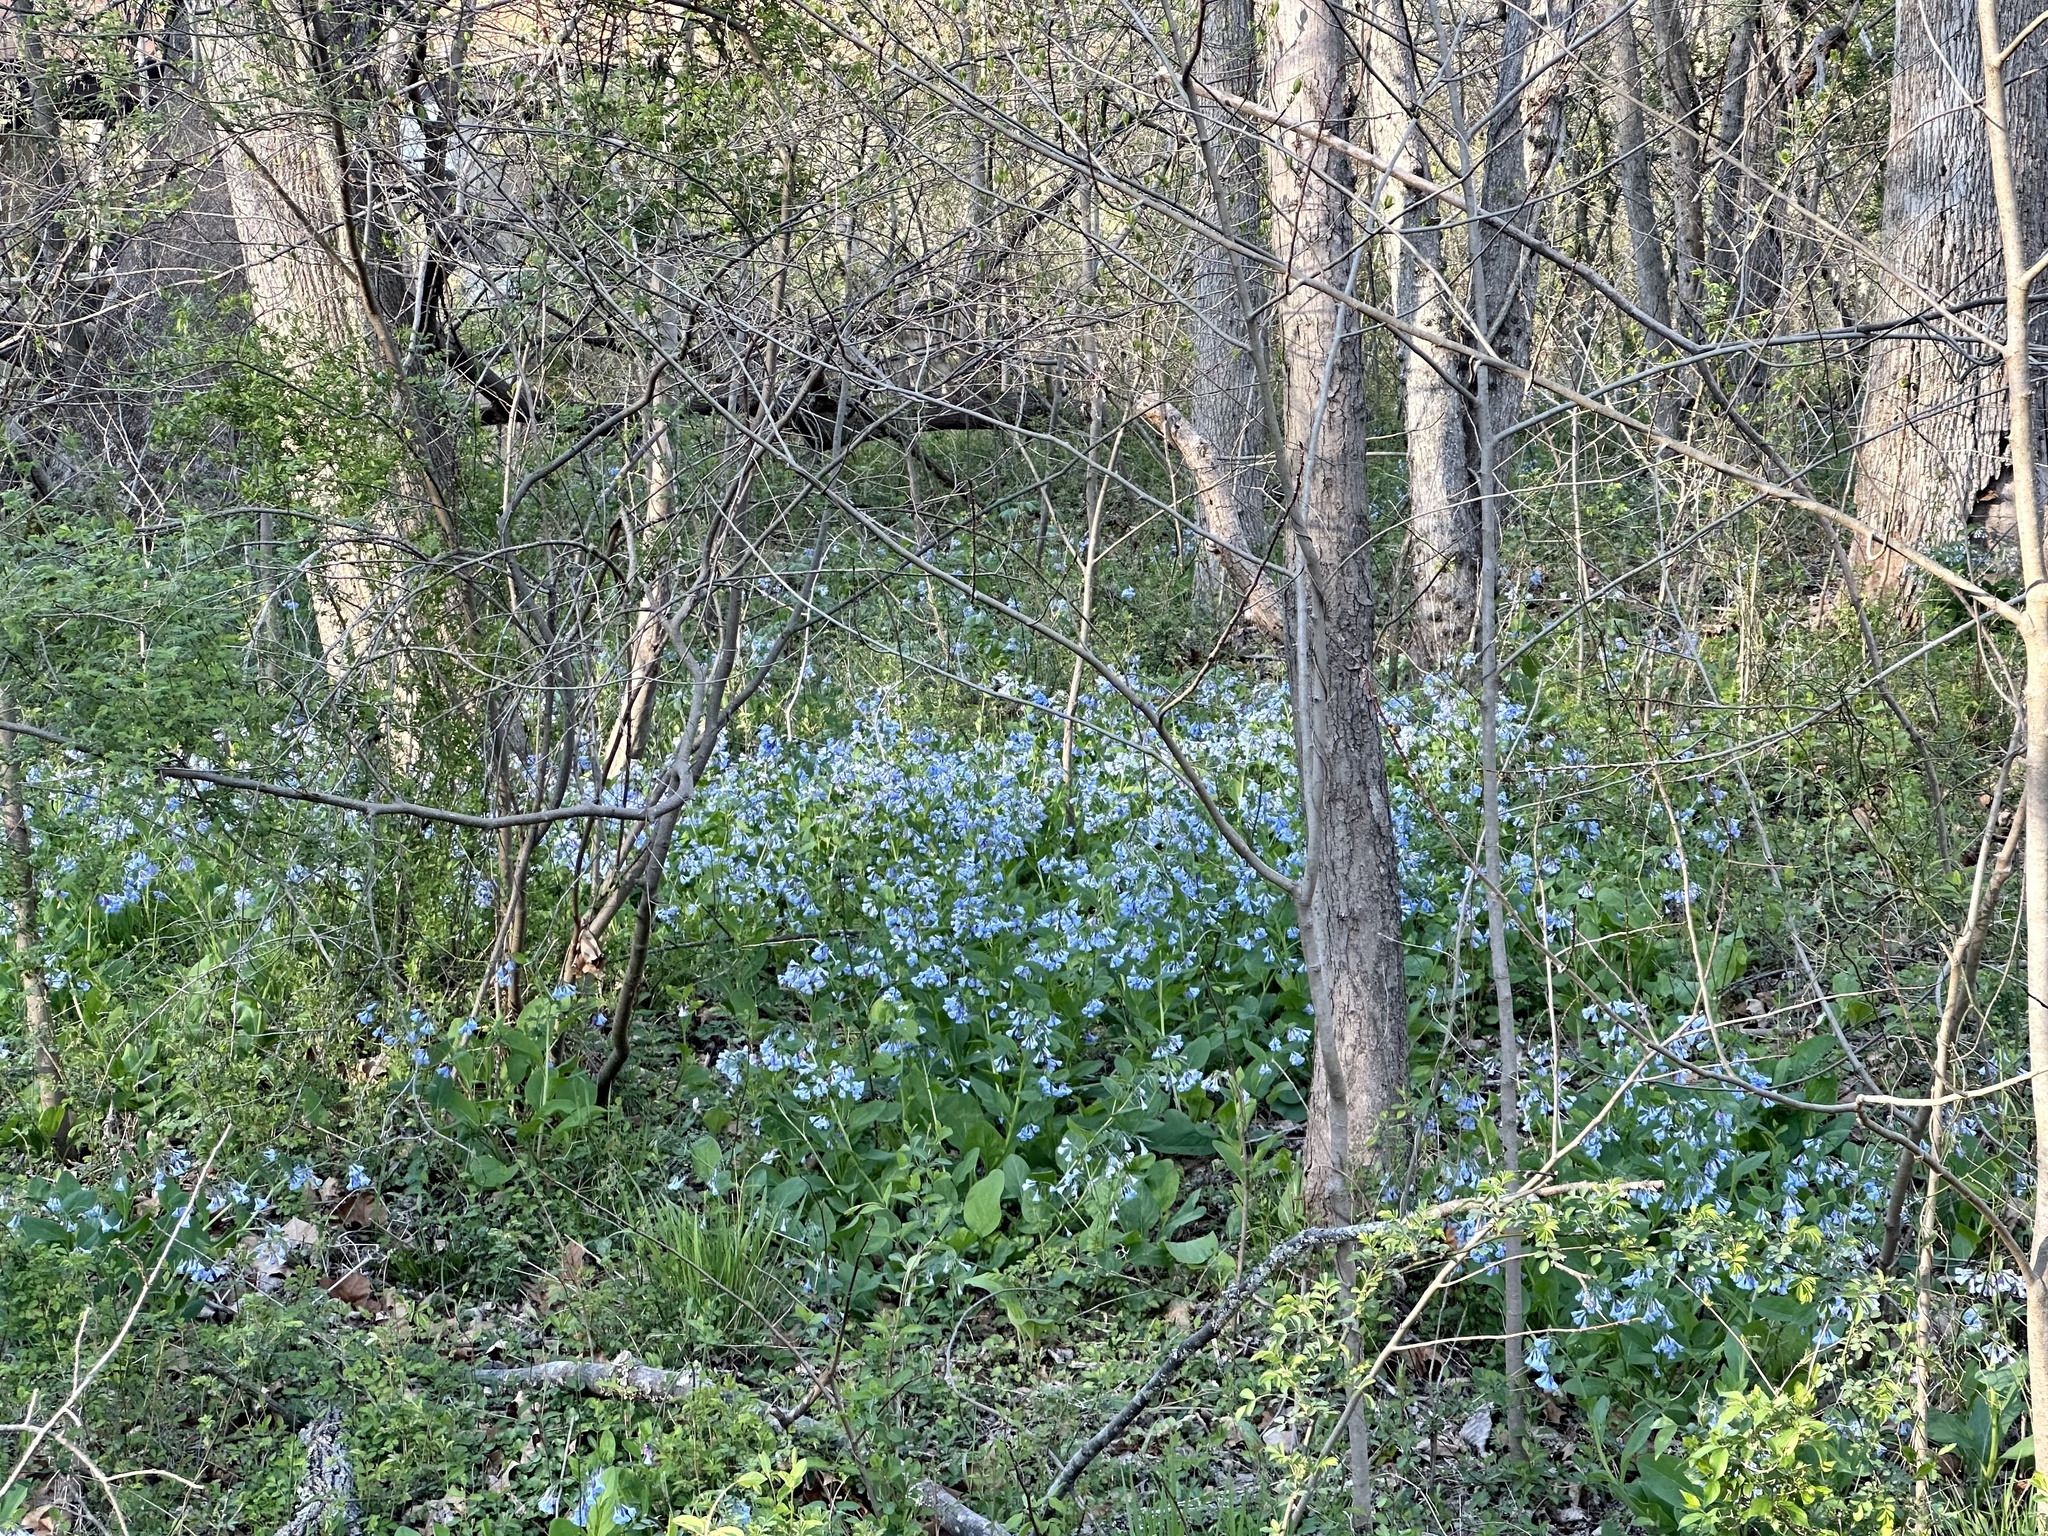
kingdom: Plantae
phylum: Tracheophyta
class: Magnoliopsida
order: Boraginales
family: Boraginaceae
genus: Mertensia
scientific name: Mertensia virginica
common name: Virginia bluebells
